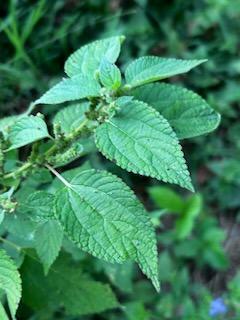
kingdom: Plantae
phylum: Tracheophyta
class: Magnoliopsida
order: Rosales
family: Urticaceae
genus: Boehmeria
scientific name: Boehmeria cylindrica
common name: Bog-hemp
